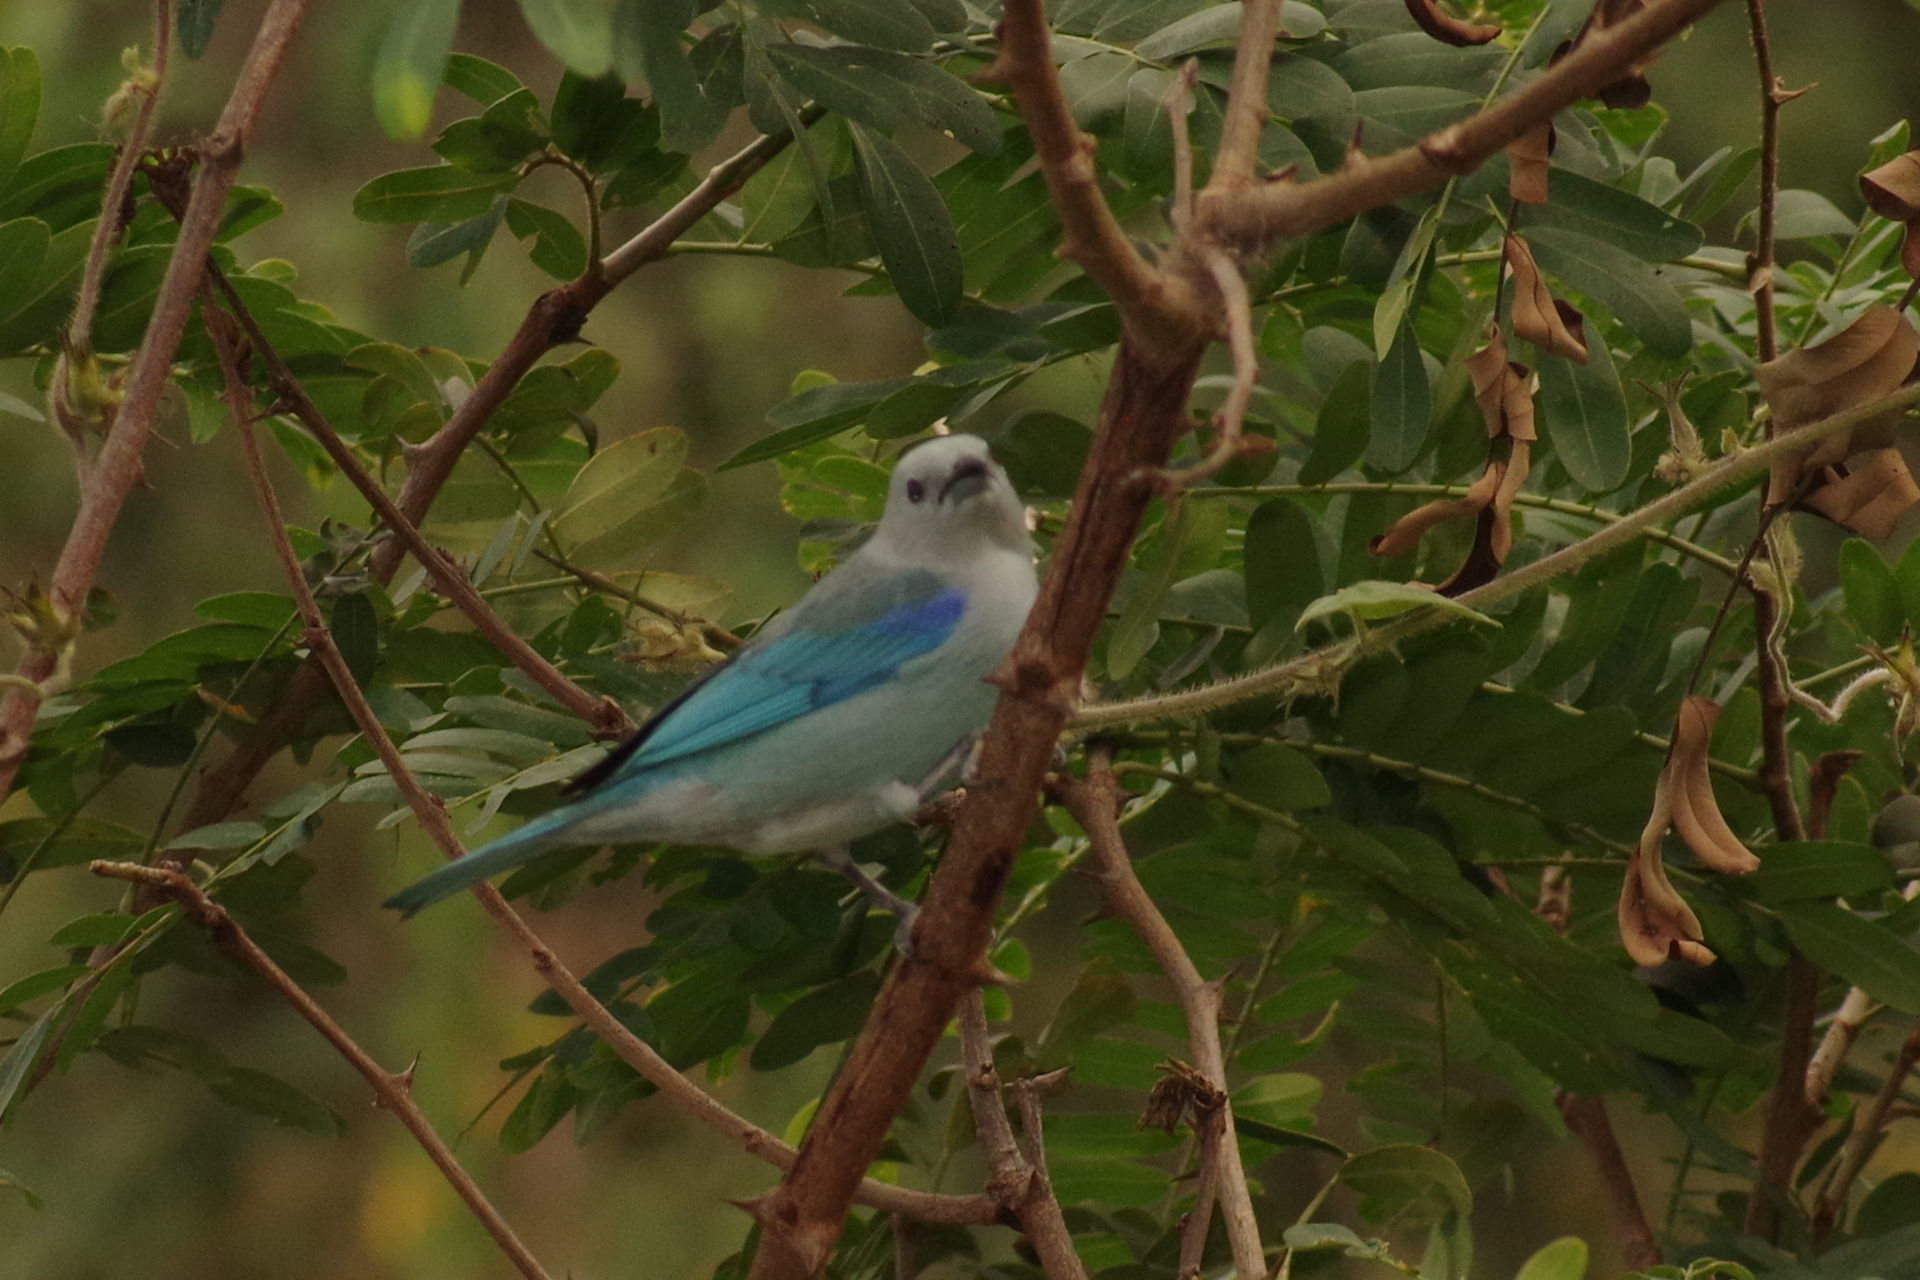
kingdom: Animalia
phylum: Chordata
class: Aves
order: Passeriformes
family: Thraupidae
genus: Thraupis
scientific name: Thraupis episcopus
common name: Blue-grey tanager
